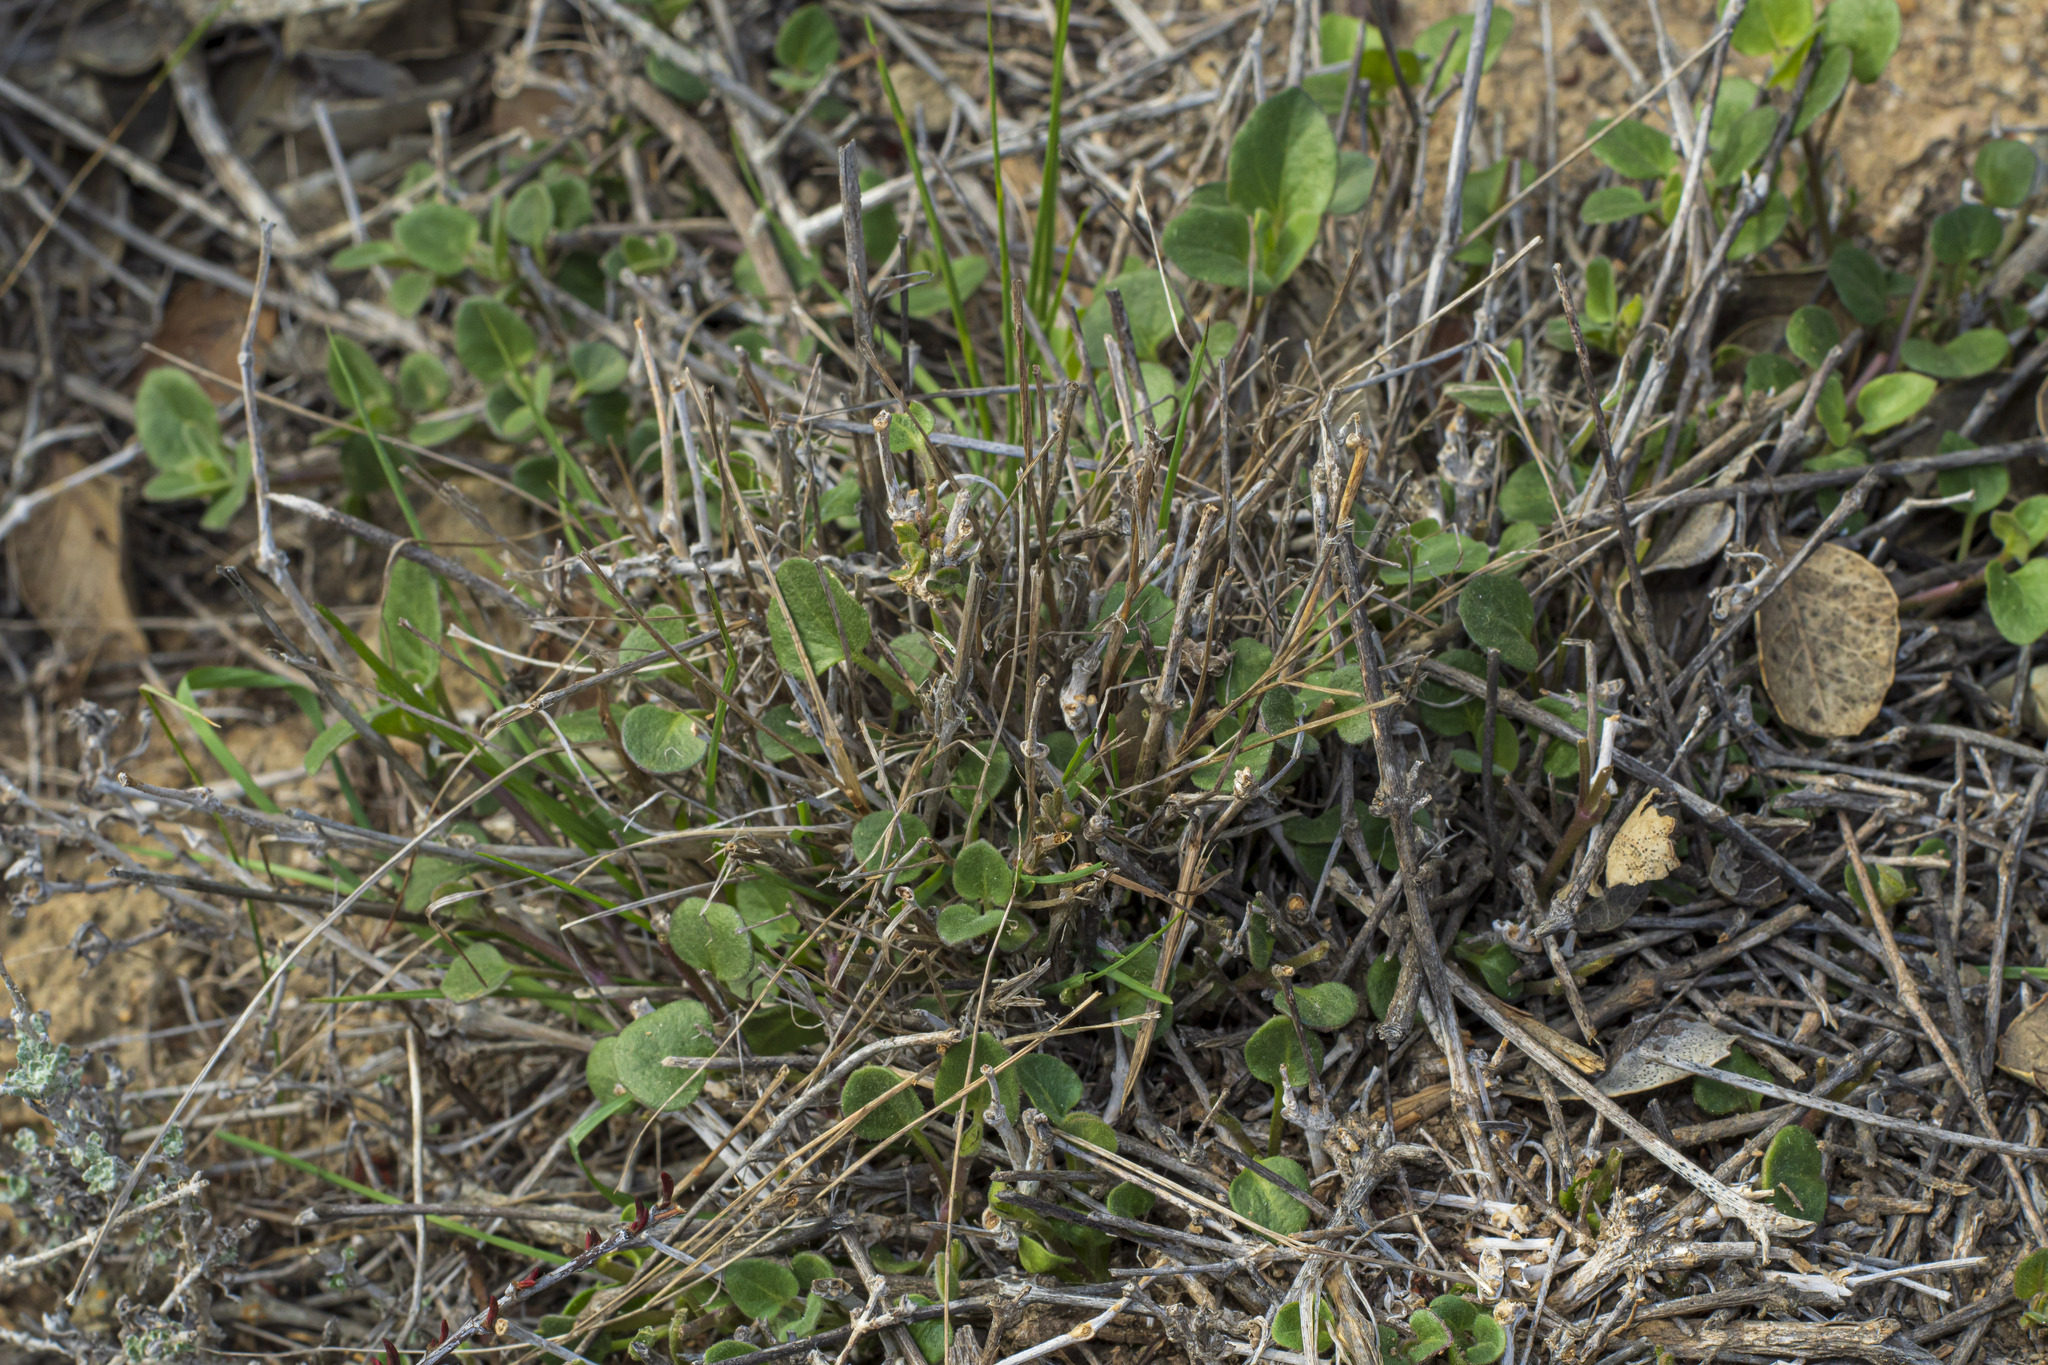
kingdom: Plantae
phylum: Tracheophyta
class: Magnoliopsida
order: Caryophyllales
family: Nyctaginaceae
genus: Mirabilis
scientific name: Mirabilis laevis
